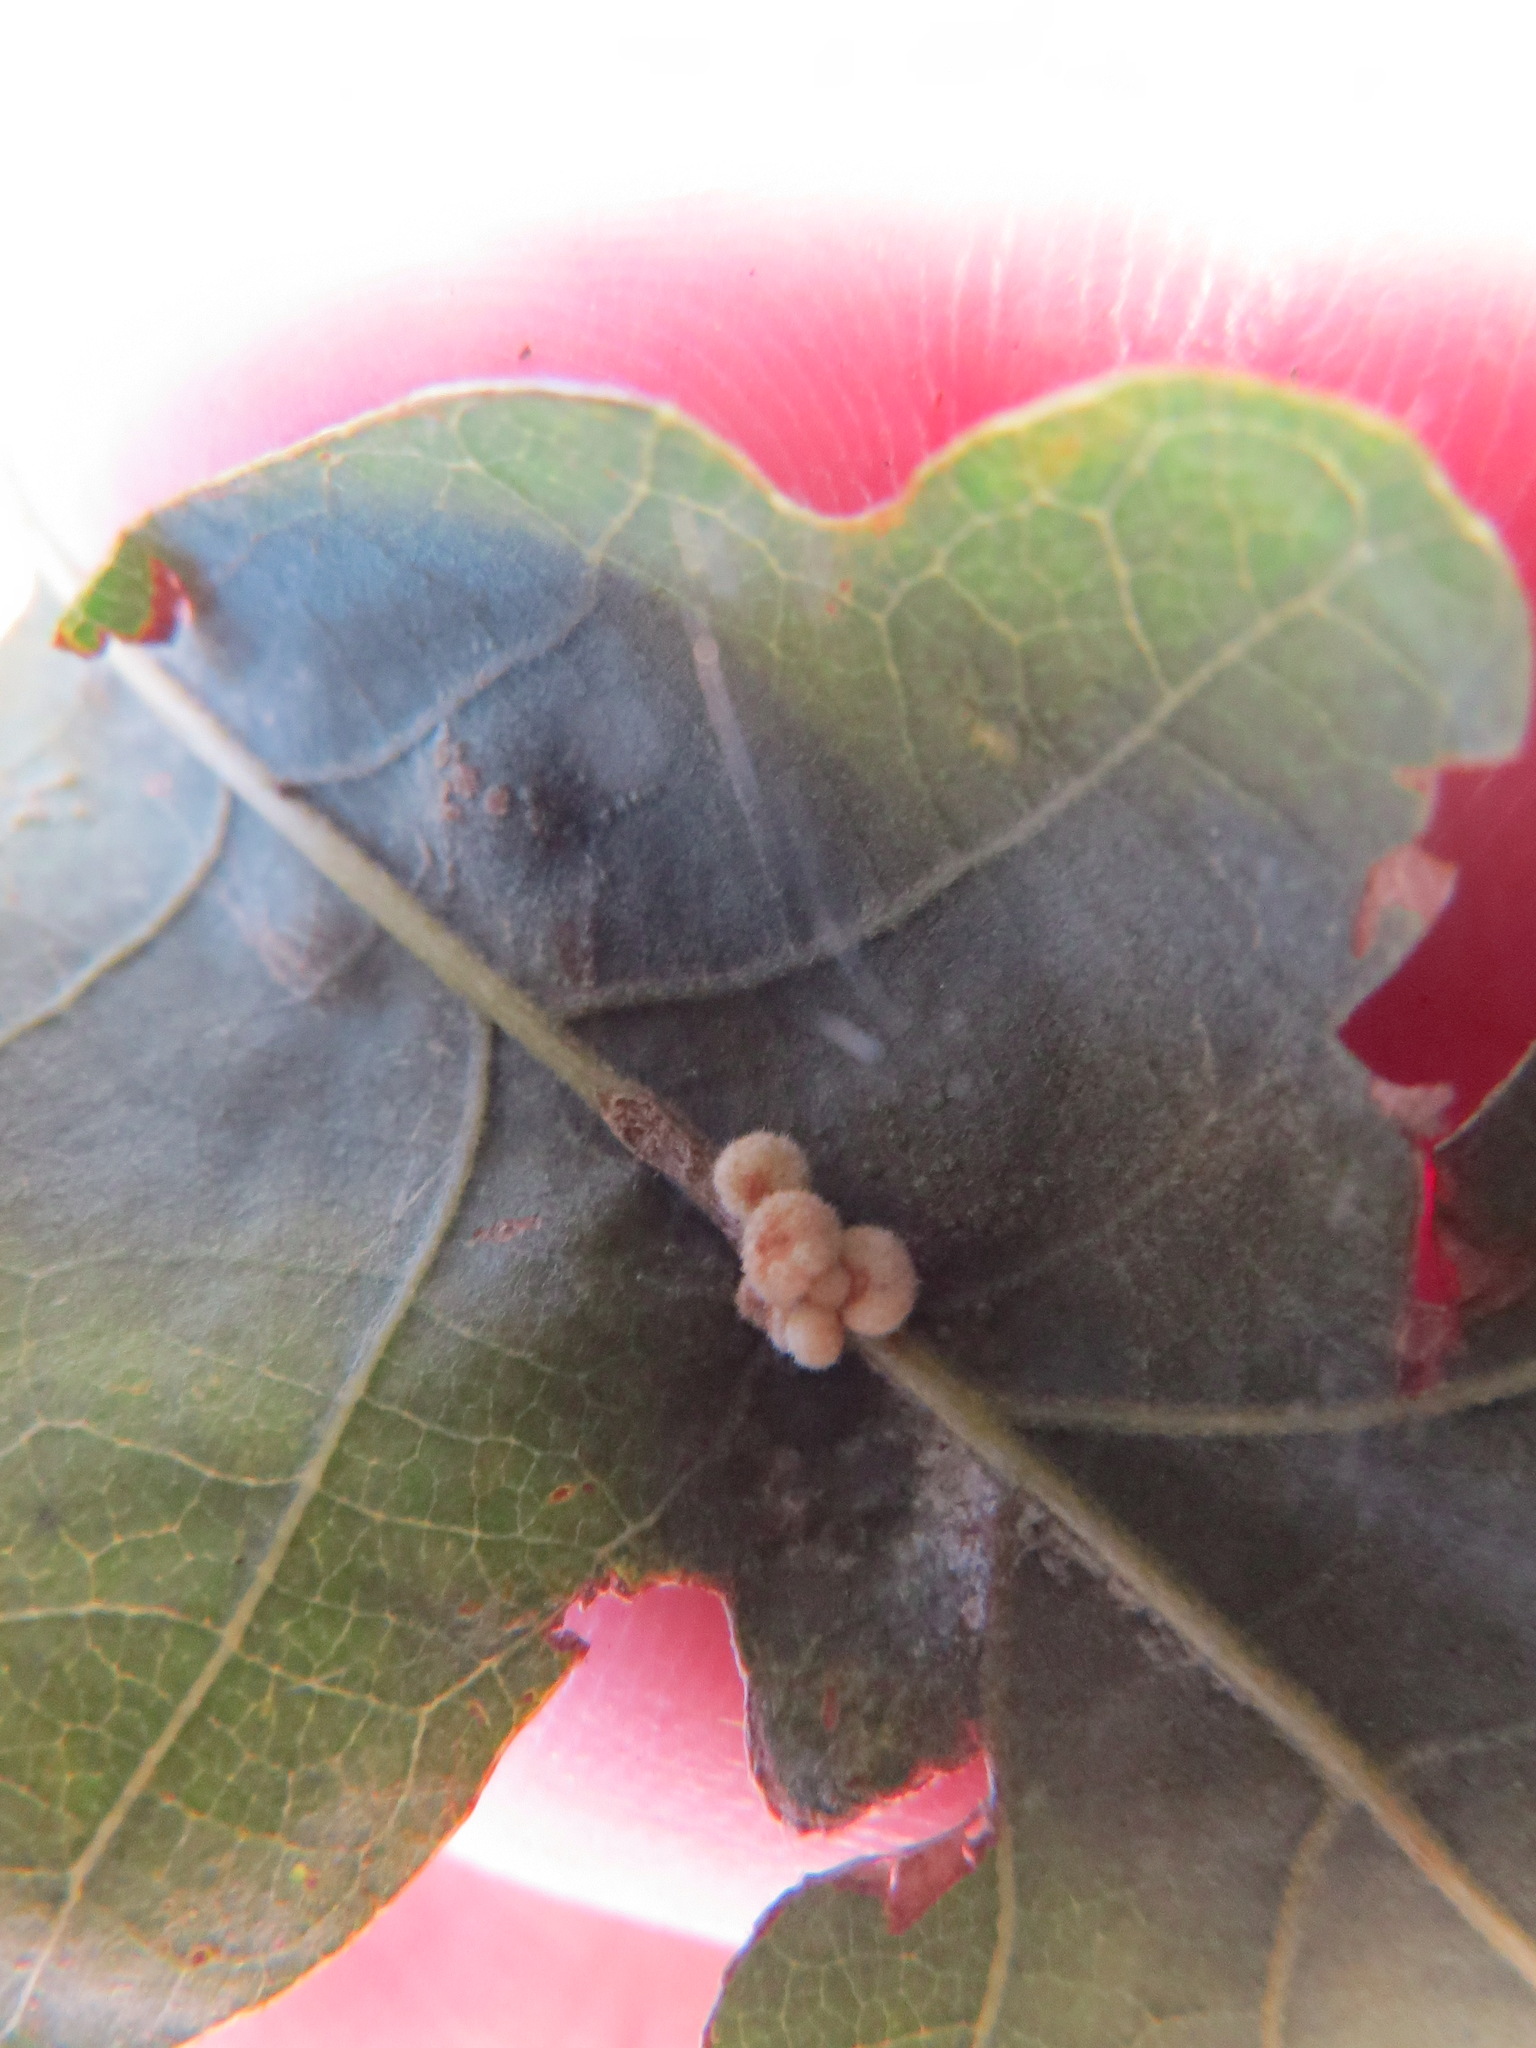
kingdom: Animalia
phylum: Arthropoda
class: Insecta
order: Hymenoptera
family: Cynipidae
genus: Andricus
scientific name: Andricus
